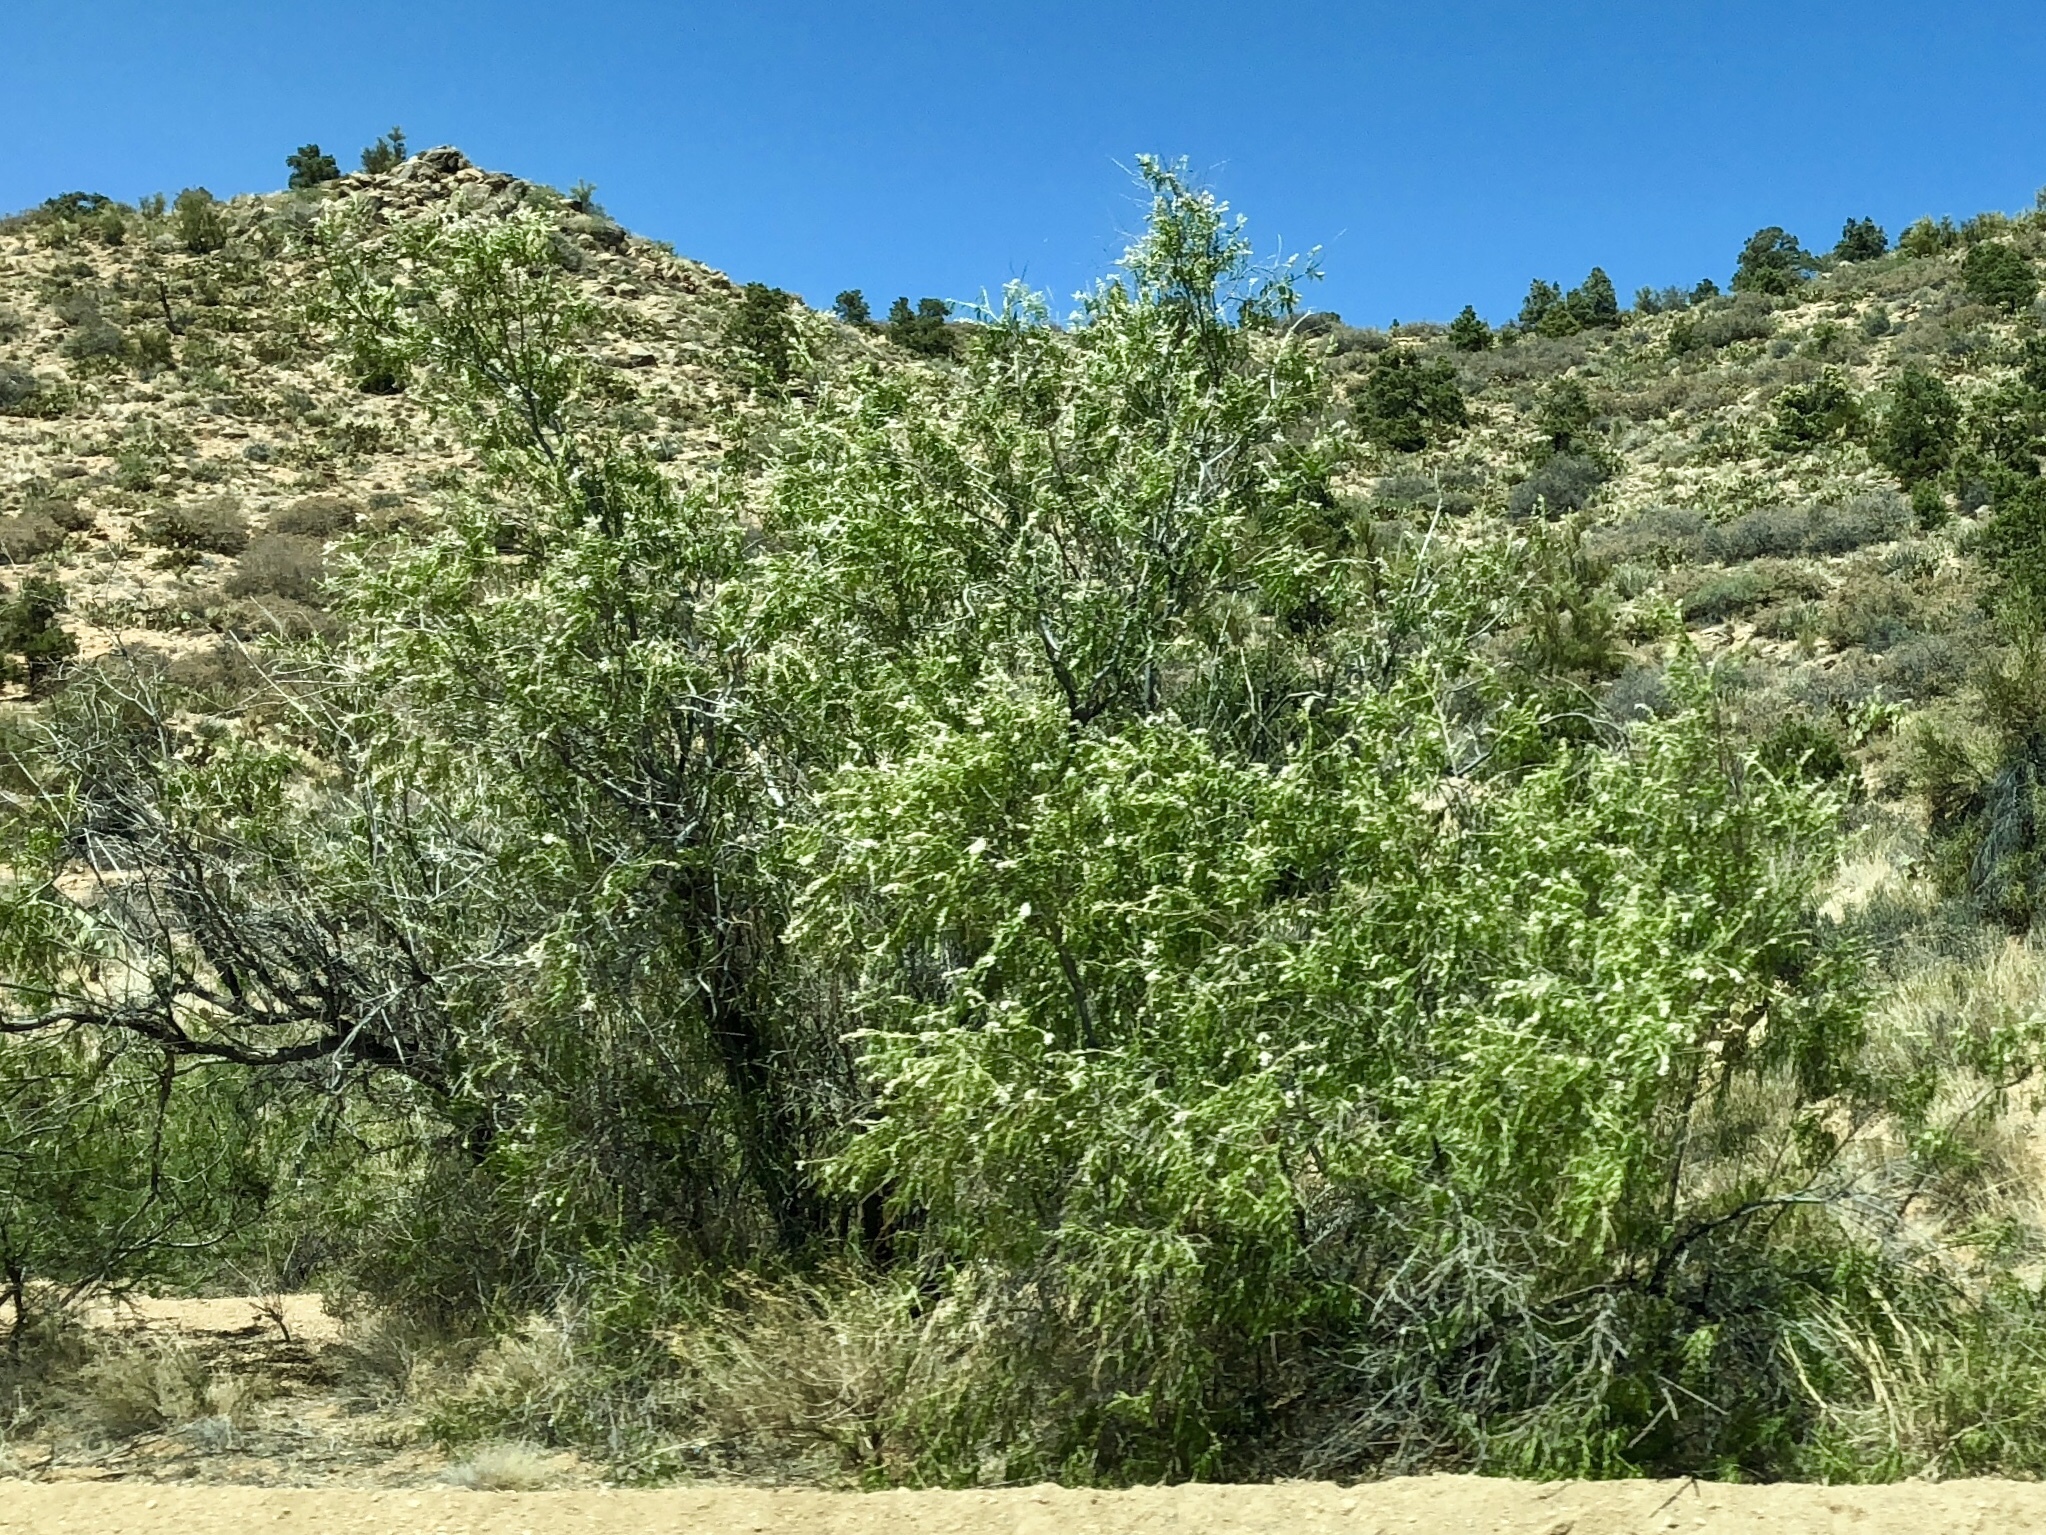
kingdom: Plantae
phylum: Tracheophyta
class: Magnoliopsida
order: Lamiales
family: Bignoniaceae
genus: Chilopsis
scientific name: Chilopsis linearis
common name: Desert-willow
